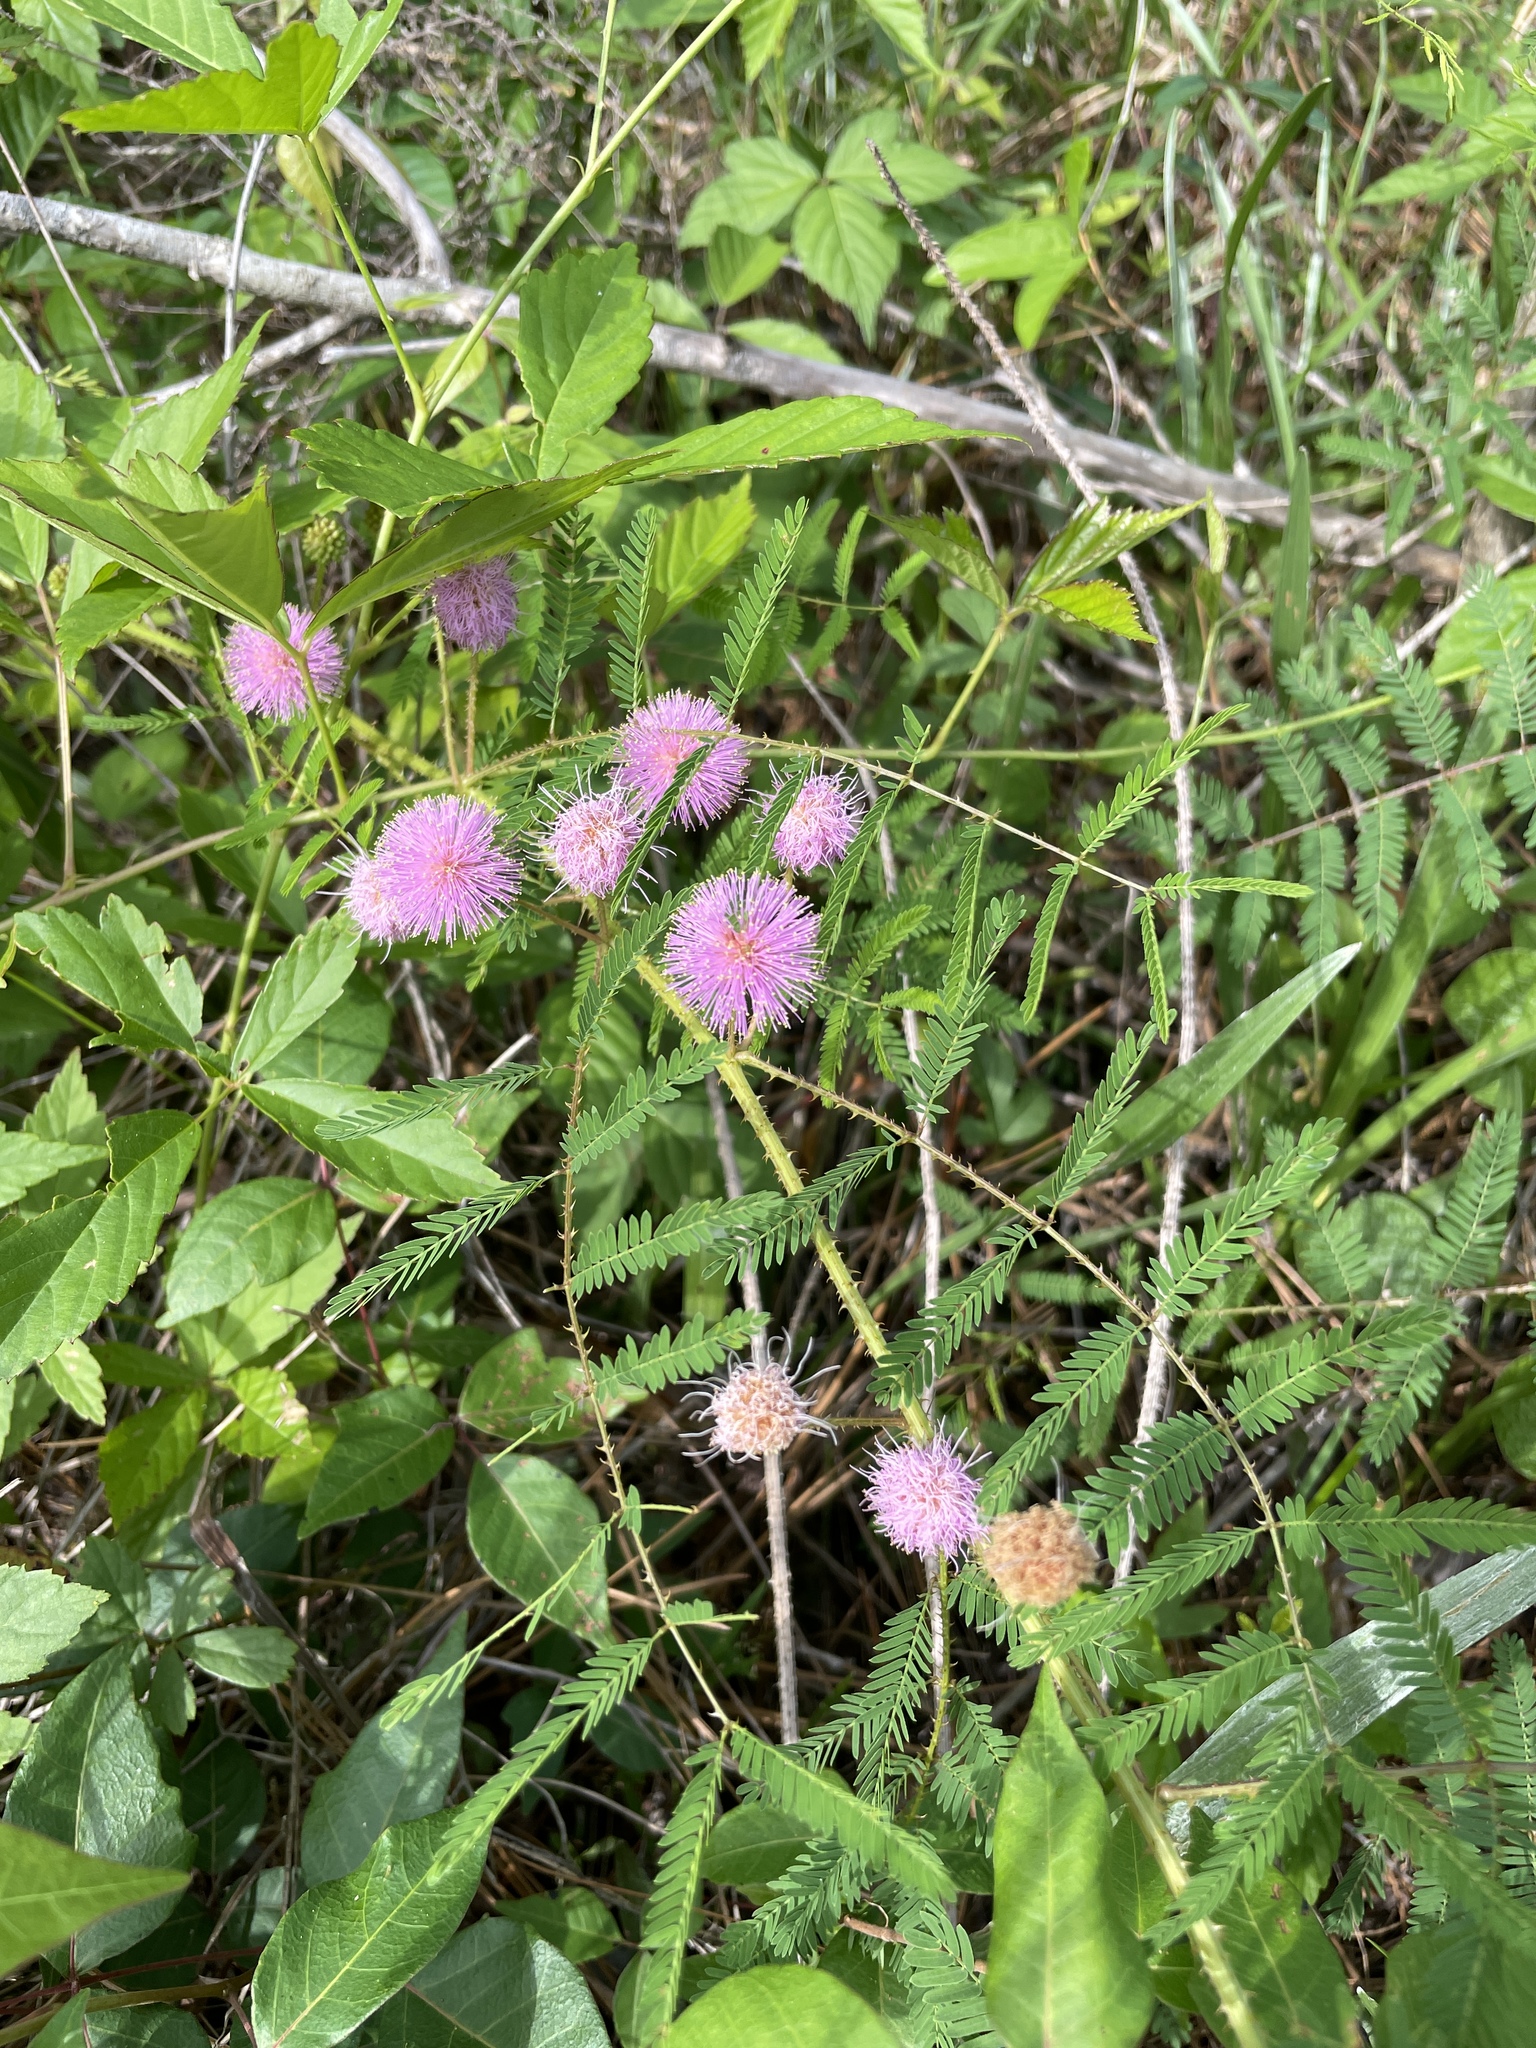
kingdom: Plantae
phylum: Tracheophyta
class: Magnoliopsida
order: Fabales
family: Fabaceae
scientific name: Fabaceae
